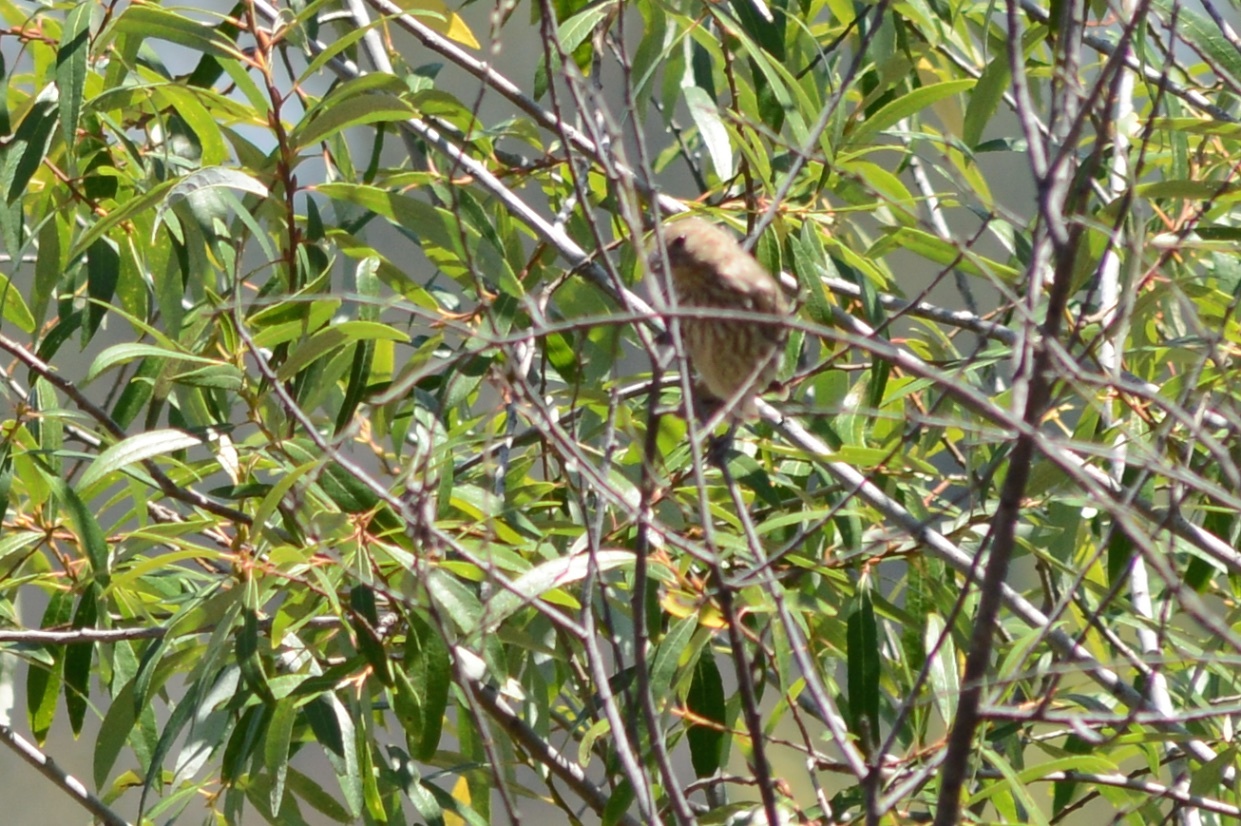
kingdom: Animalia
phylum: Chordata
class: Aves
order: Passeriformes
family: Fringillidae
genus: Haemorhous
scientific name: Haemorhous mexicanus
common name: House finch
